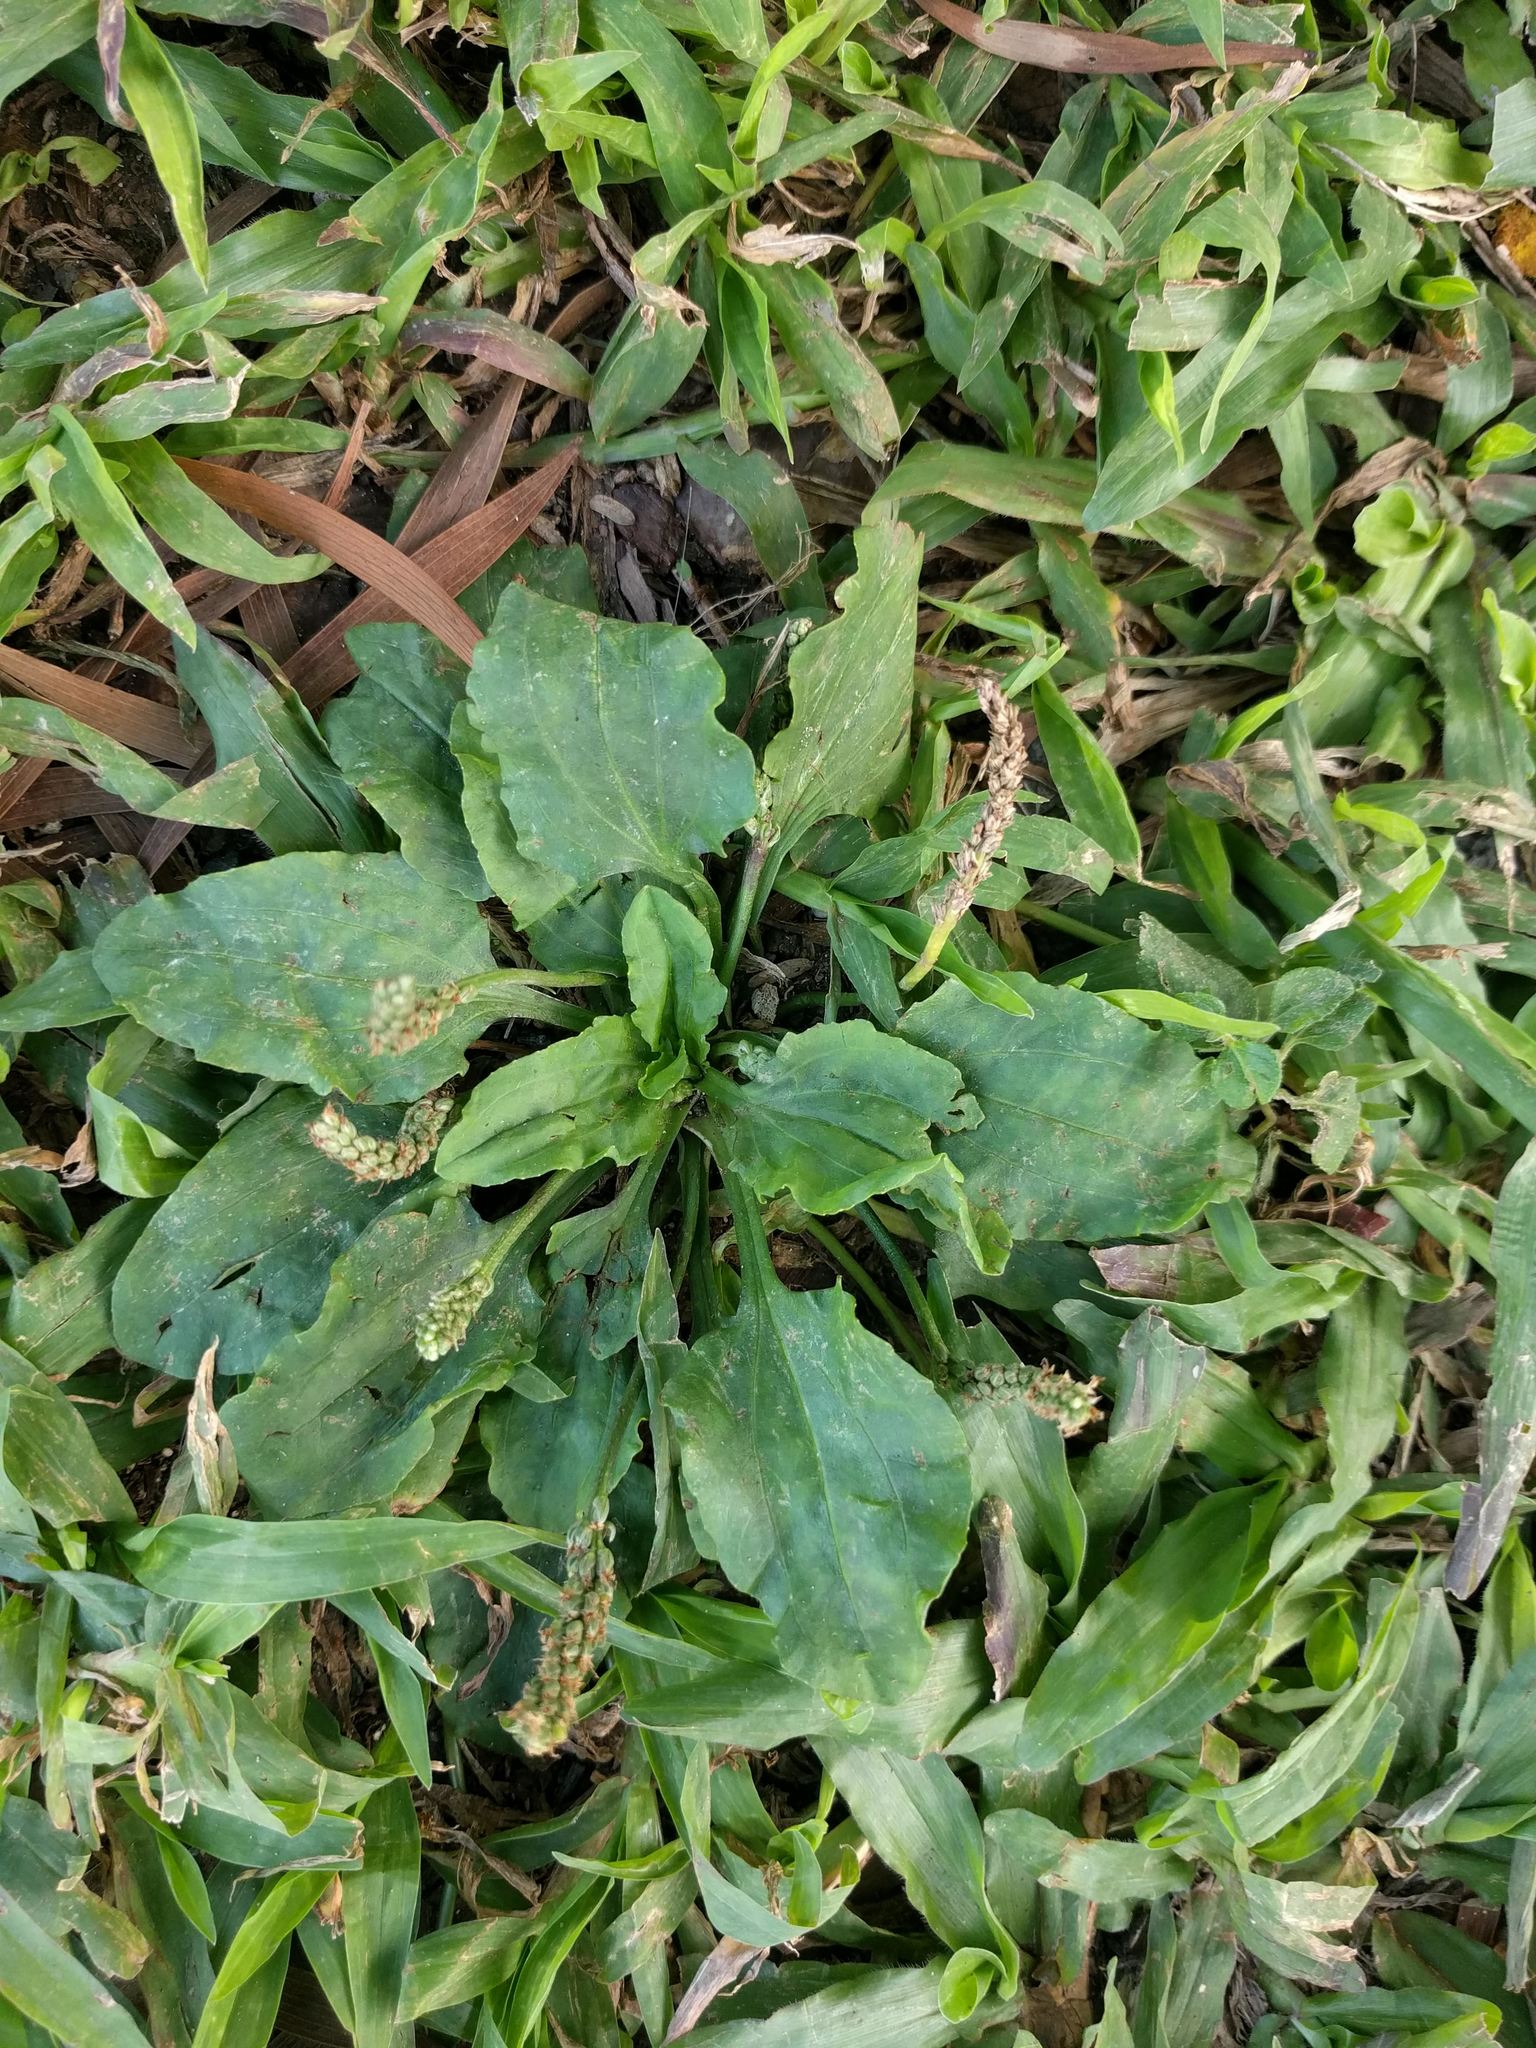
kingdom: Plantae
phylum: Tracheophyta
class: Magnoliopsida
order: Lamiales
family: Plantaginaceae
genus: Plantago
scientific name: Plantago major
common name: Common plantain
